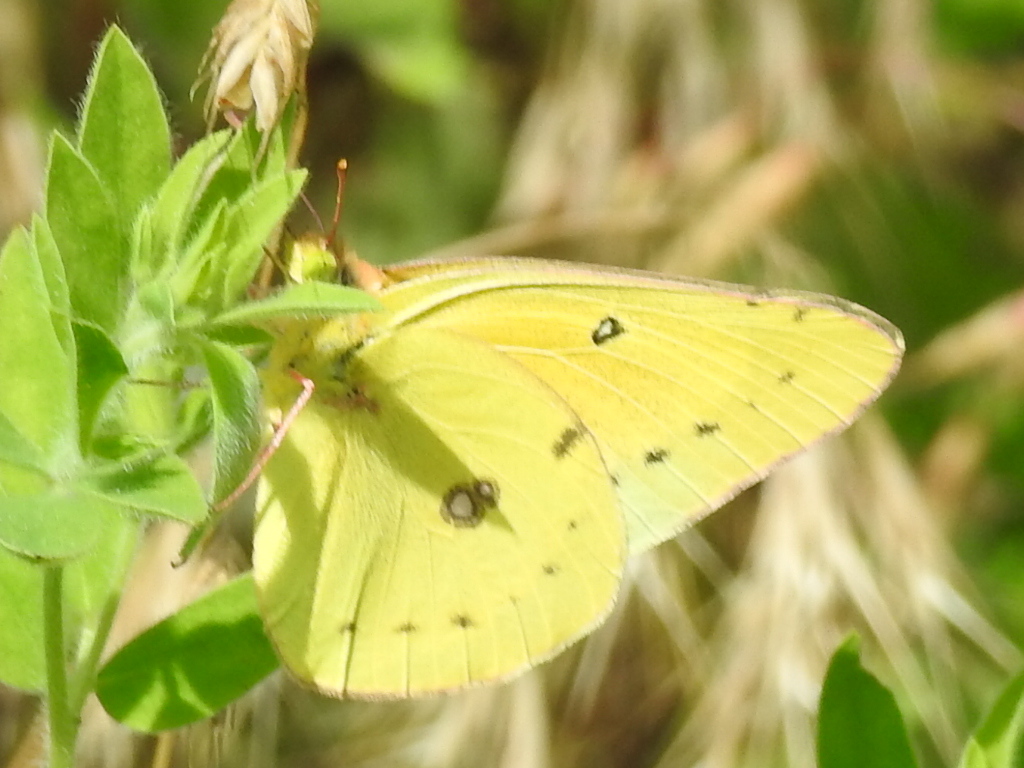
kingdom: Animalia
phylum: Arthropoda
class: Insecta
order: Lepidoptera
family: Pieridae
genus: Colias
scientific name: Colias eurytheme
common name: Alfalfa butterfly
